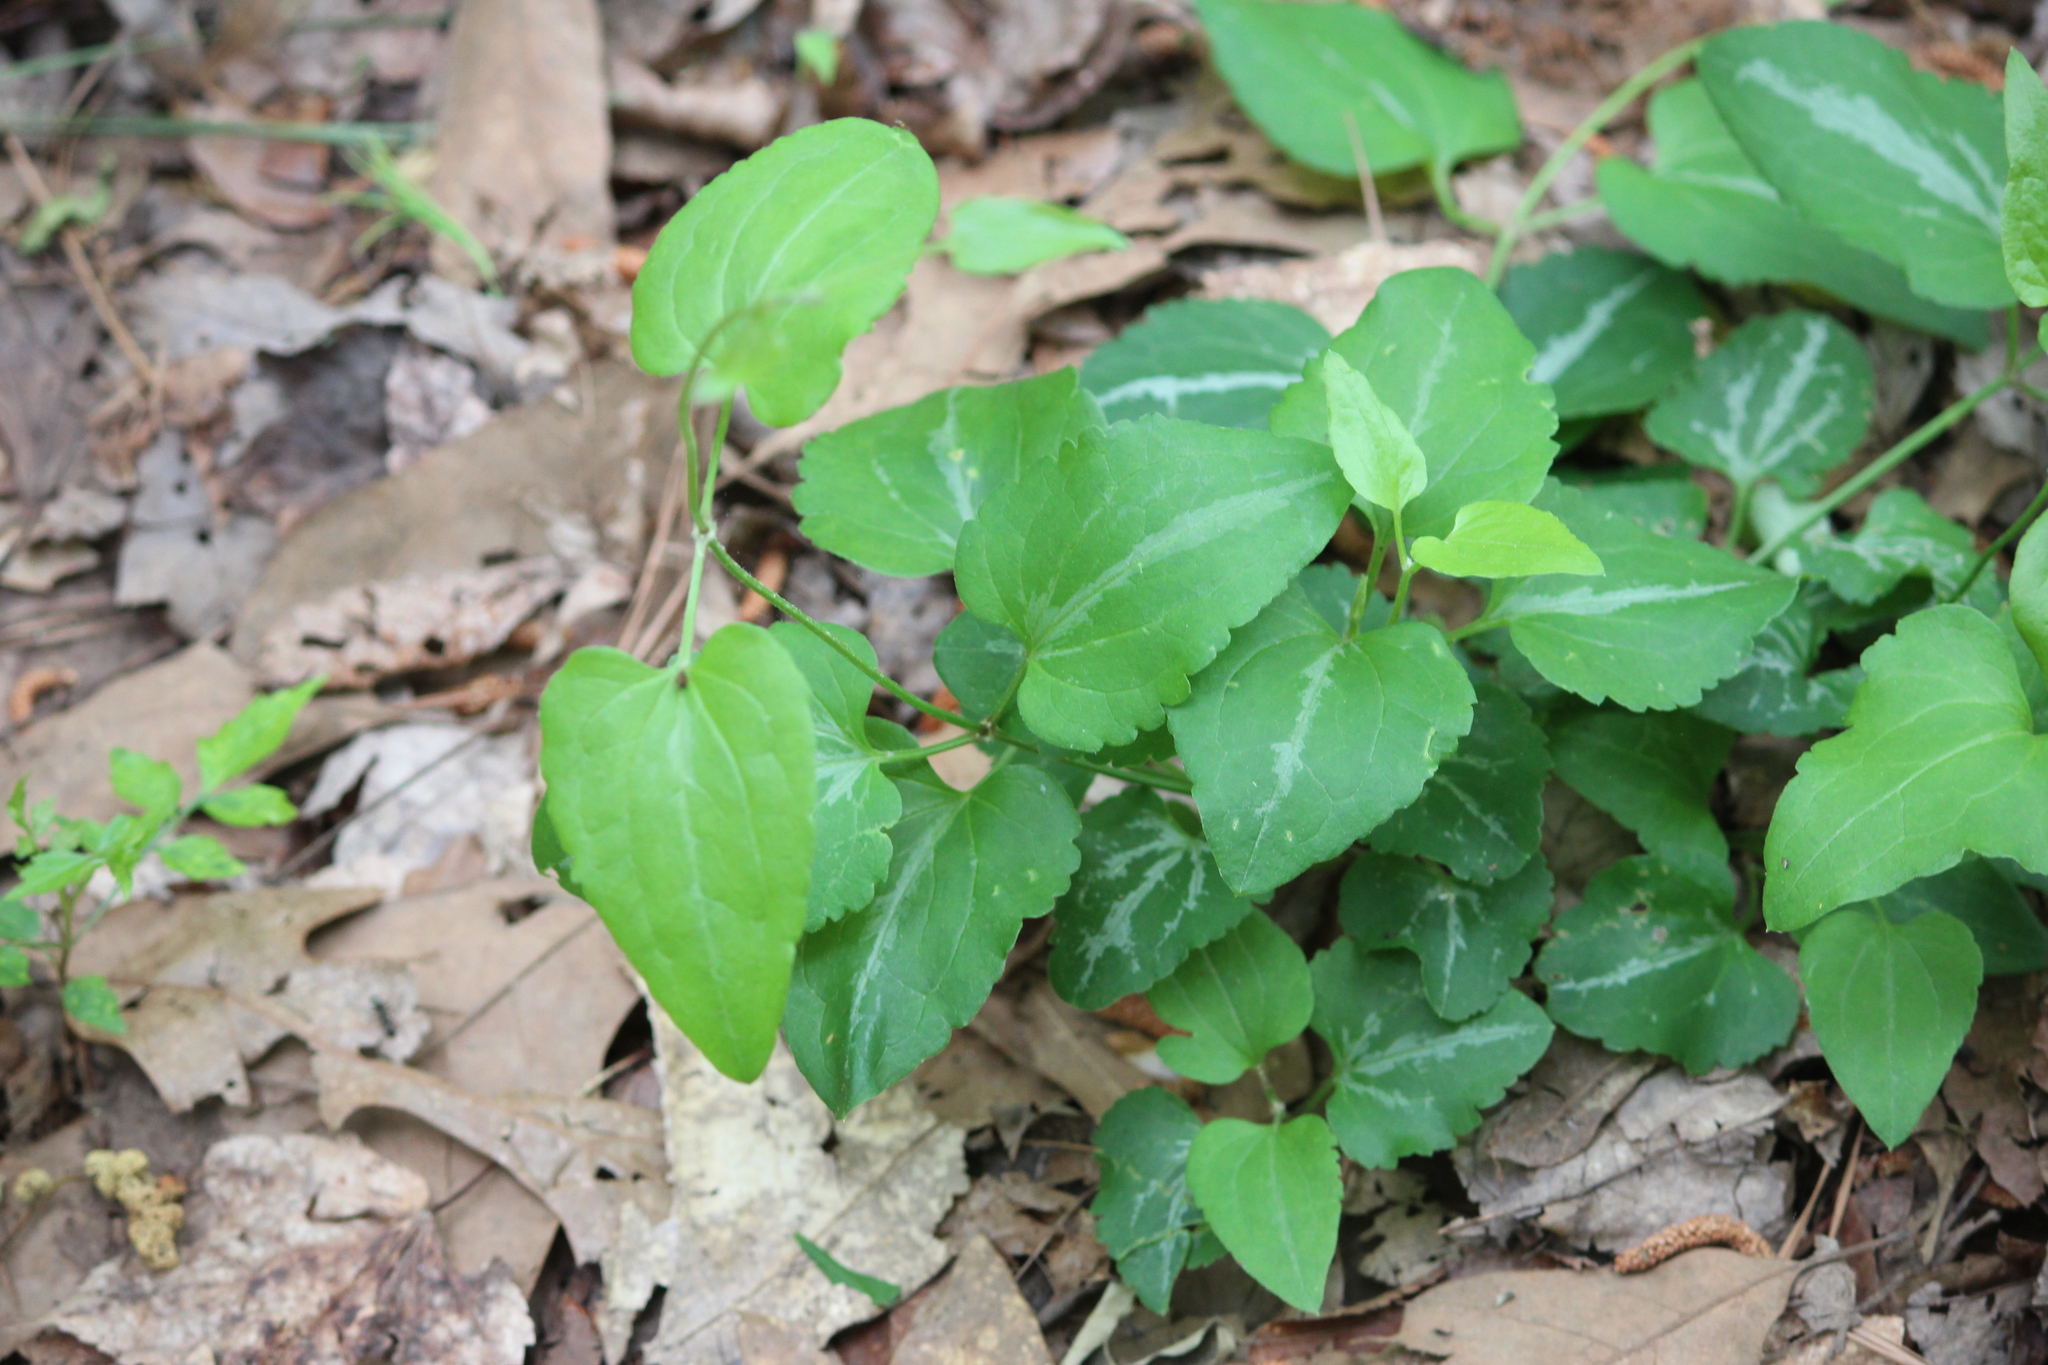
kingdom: Plantae
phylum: Tracheophyta
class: Magnoliopsida
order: Ranunculales
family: Ranunculaceae
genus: Clematis
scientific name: Clematis terniflora
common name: Sweet autumn clematis
